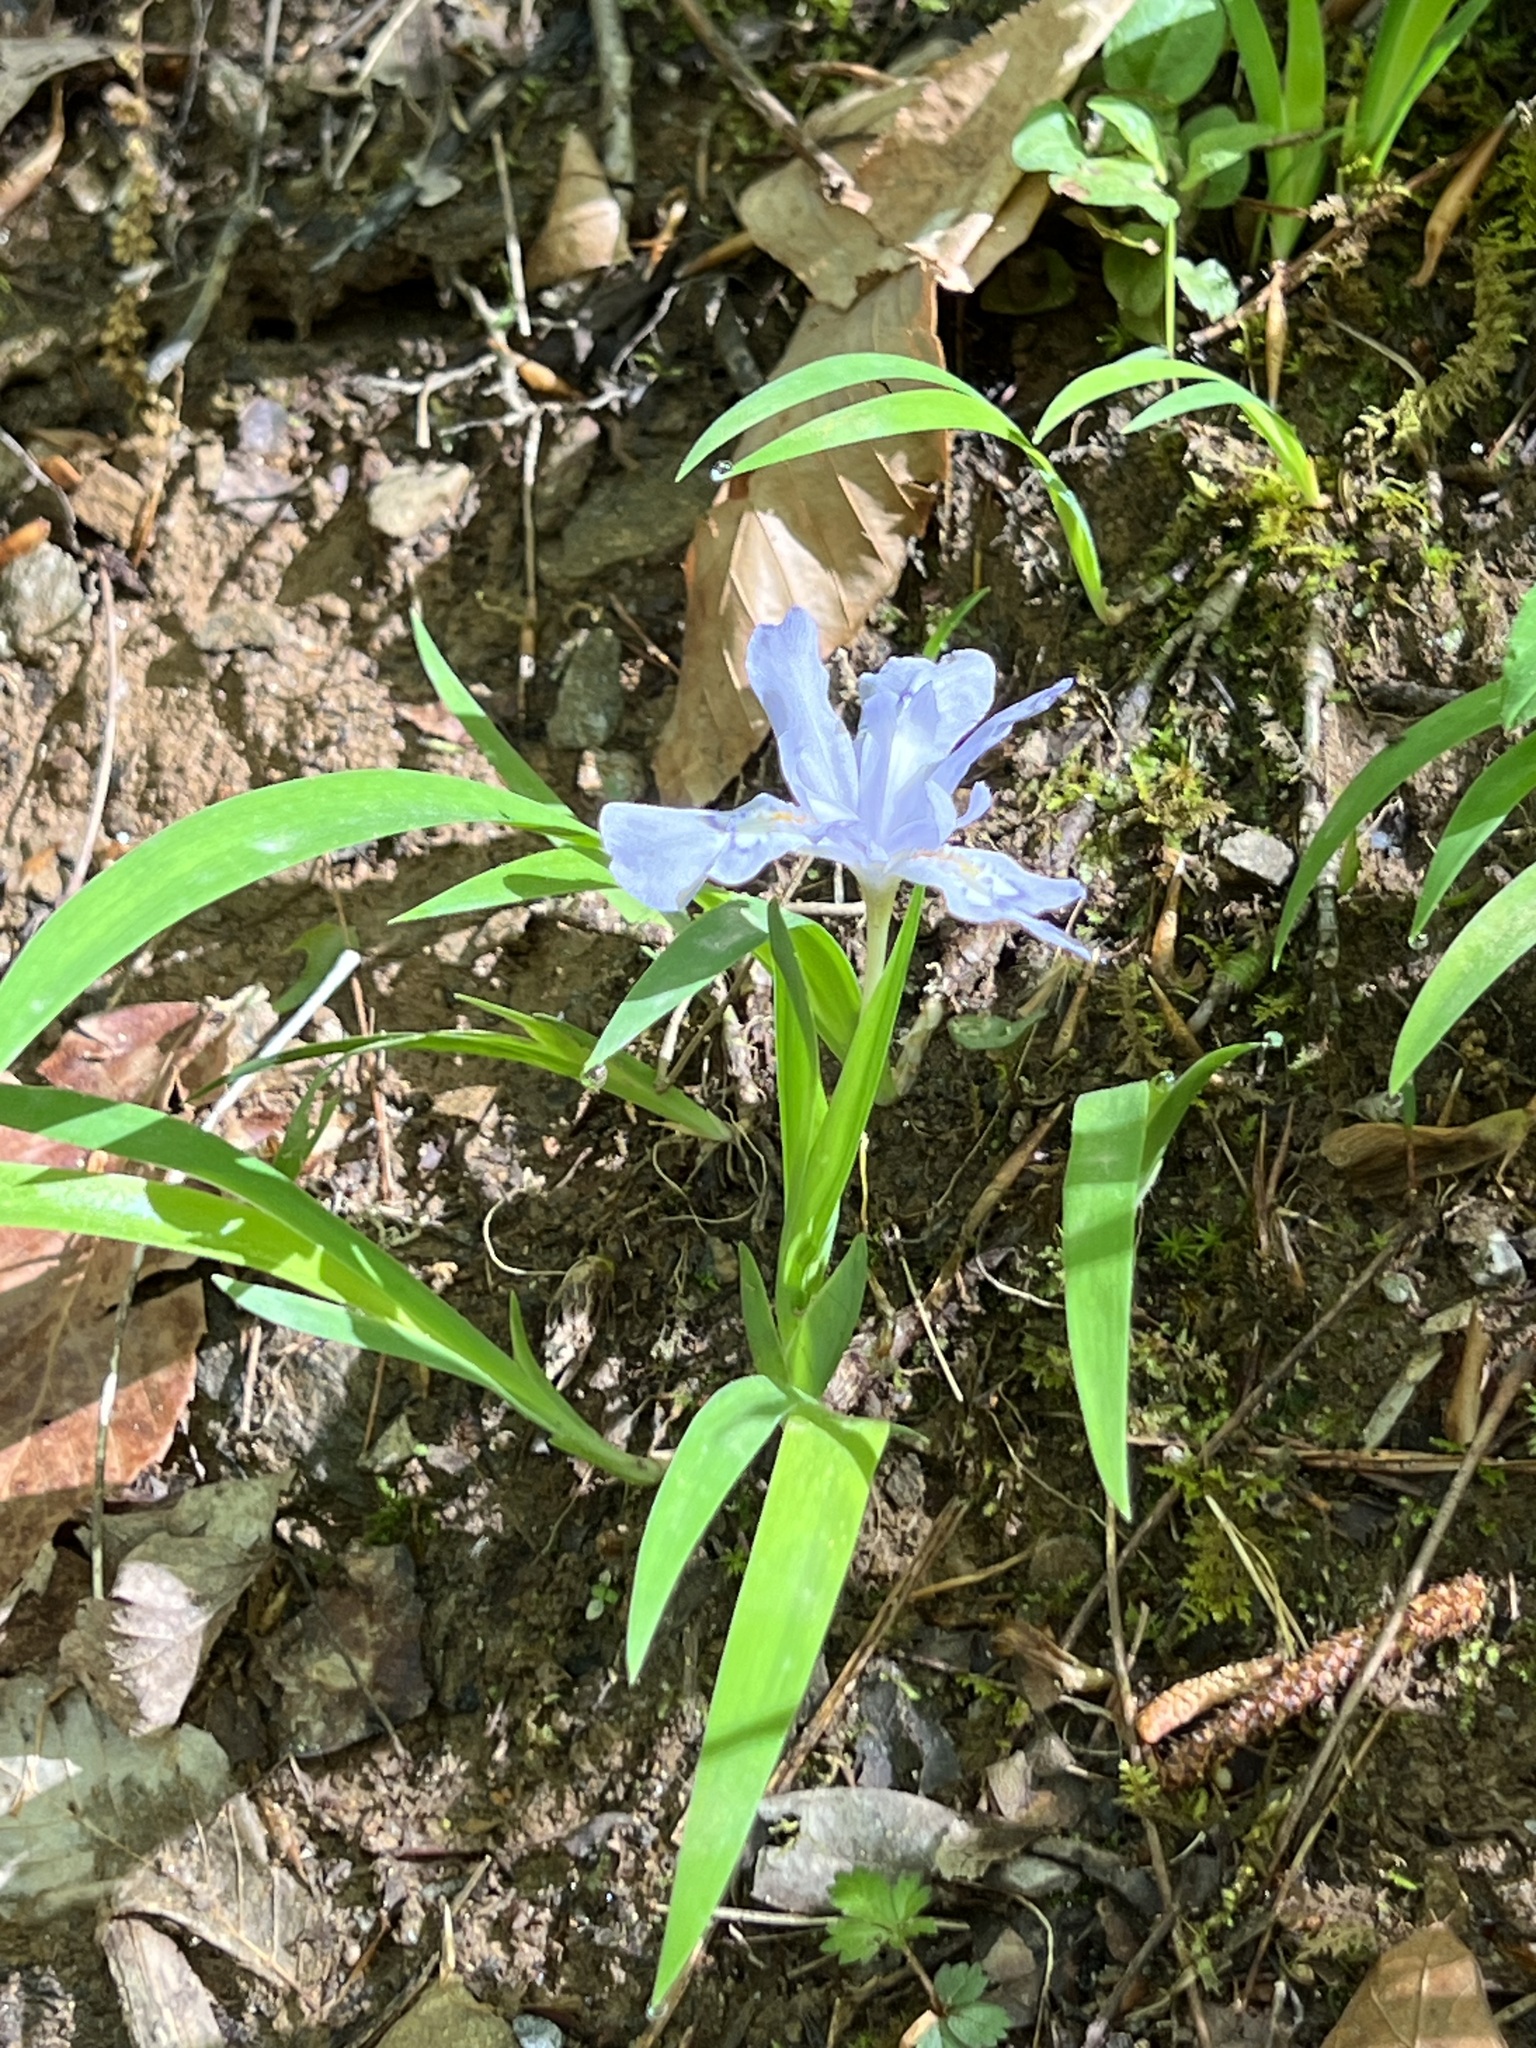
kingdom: Plantae
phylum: Tracheophyta
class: Liliopsida
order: Asparagales
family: Iridaceae
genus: Iris
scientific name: Iris cristata
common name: Crested iris
